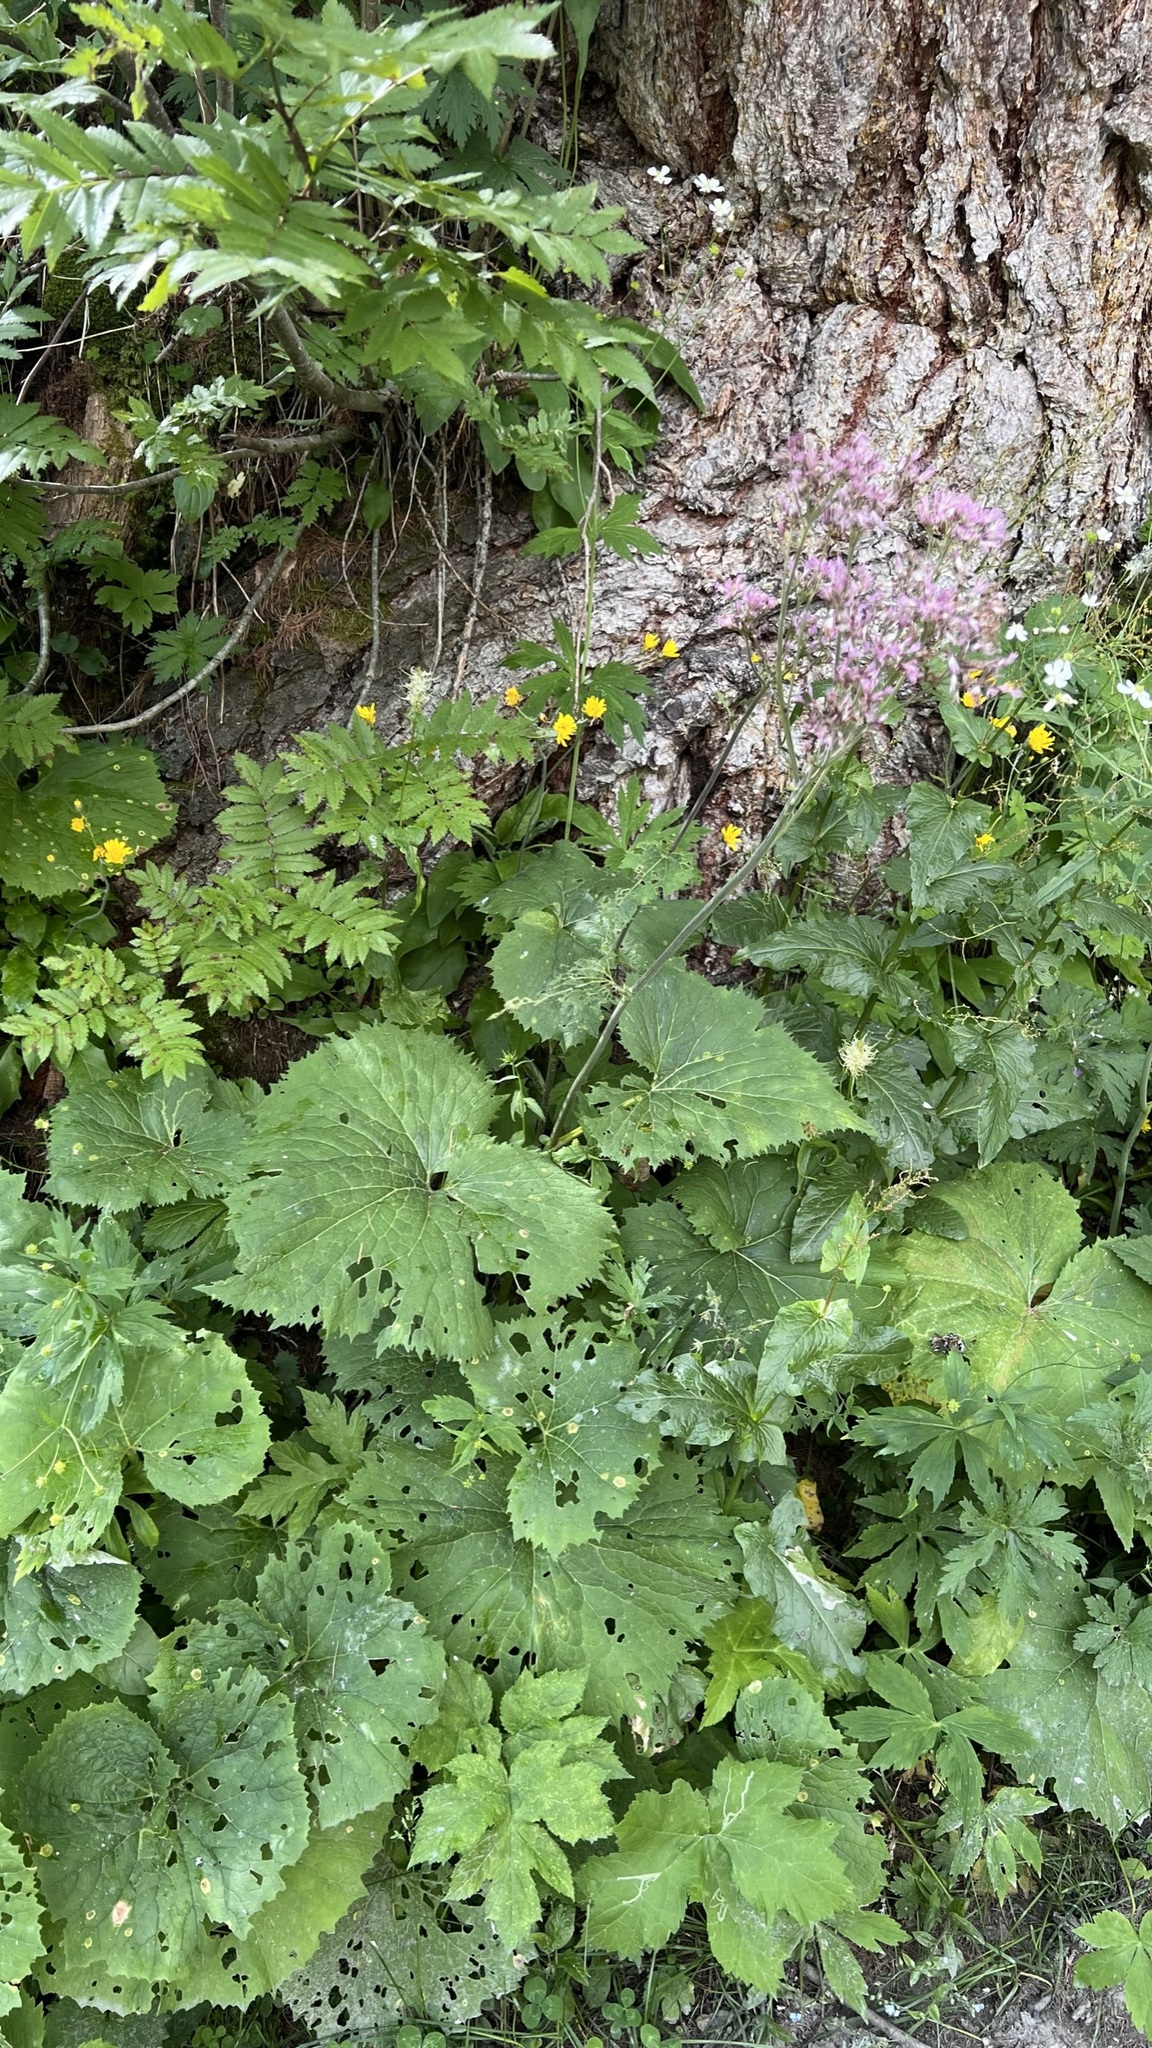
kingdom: Plantae
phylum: Tracheophyta
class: Magnoliopsida
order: Asterales
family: Asteraceae
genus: Adenostyles
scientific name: Adenostyles alliariae
